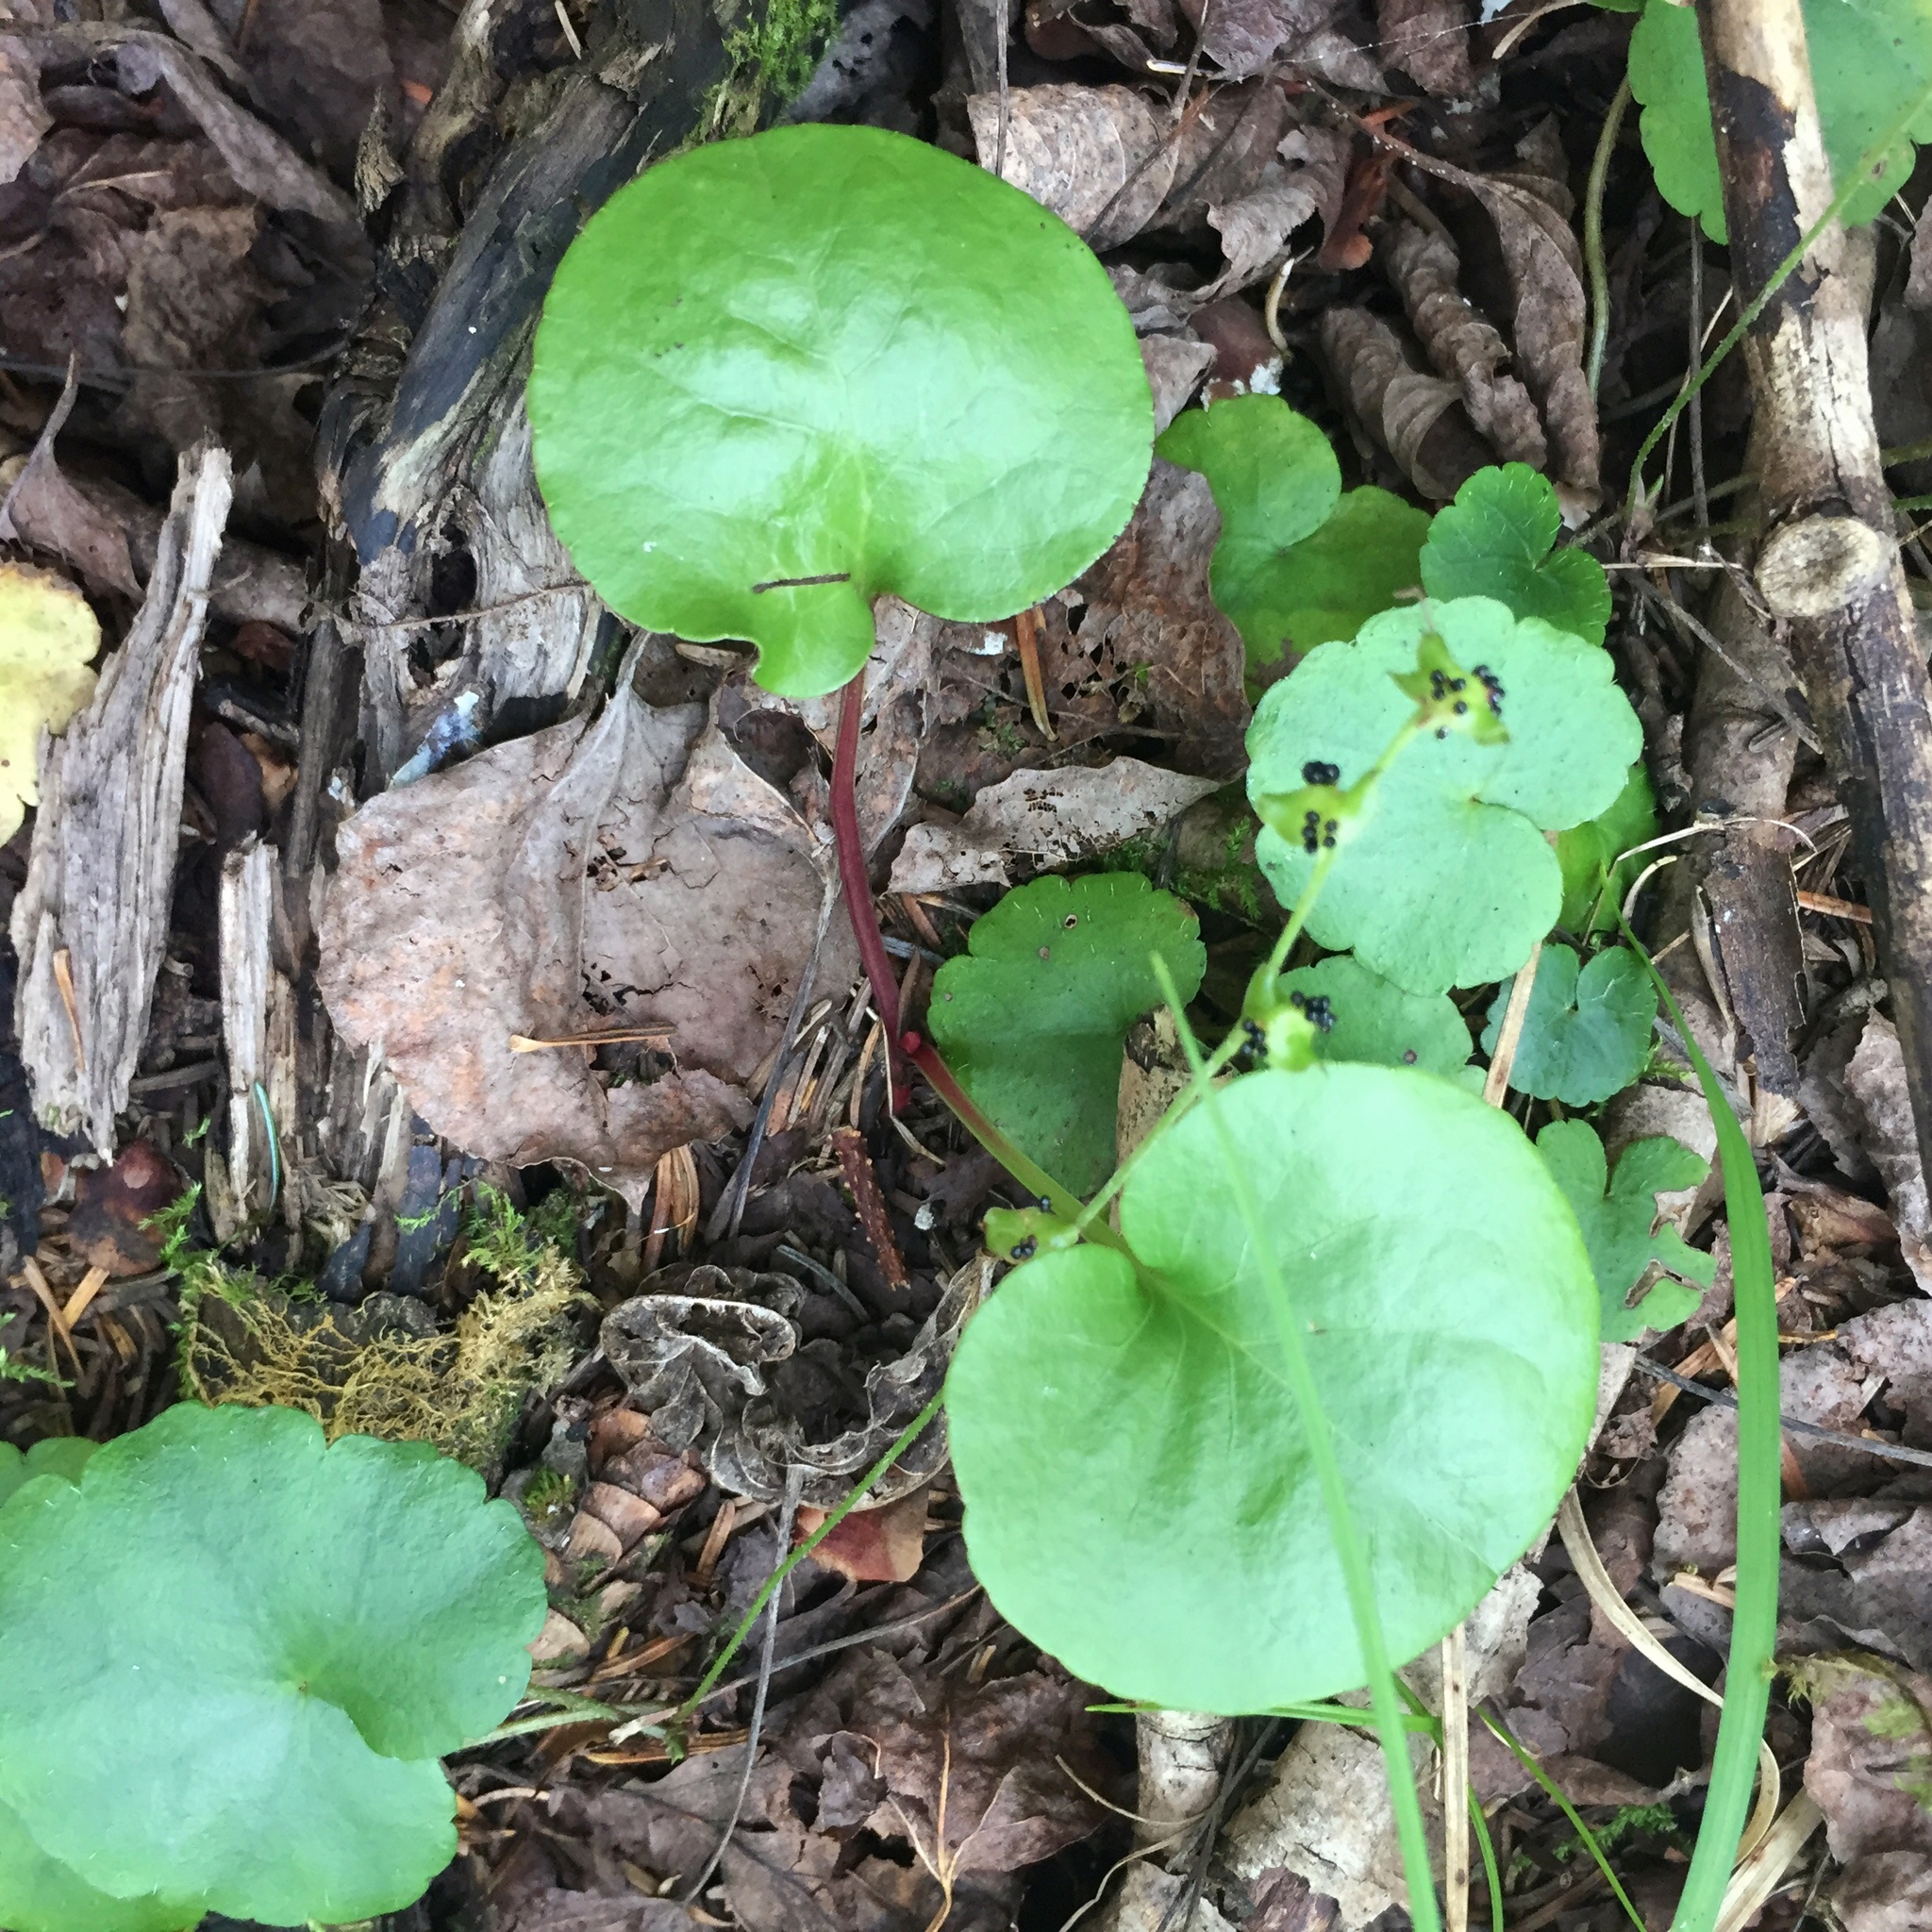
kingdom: Plantae
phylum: Tracheophyta
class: Magnoliopsida
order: Ericales
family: Ericaceae
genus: Pyrola
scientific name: Pyrola asarifolia
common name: Bog wintergreen
